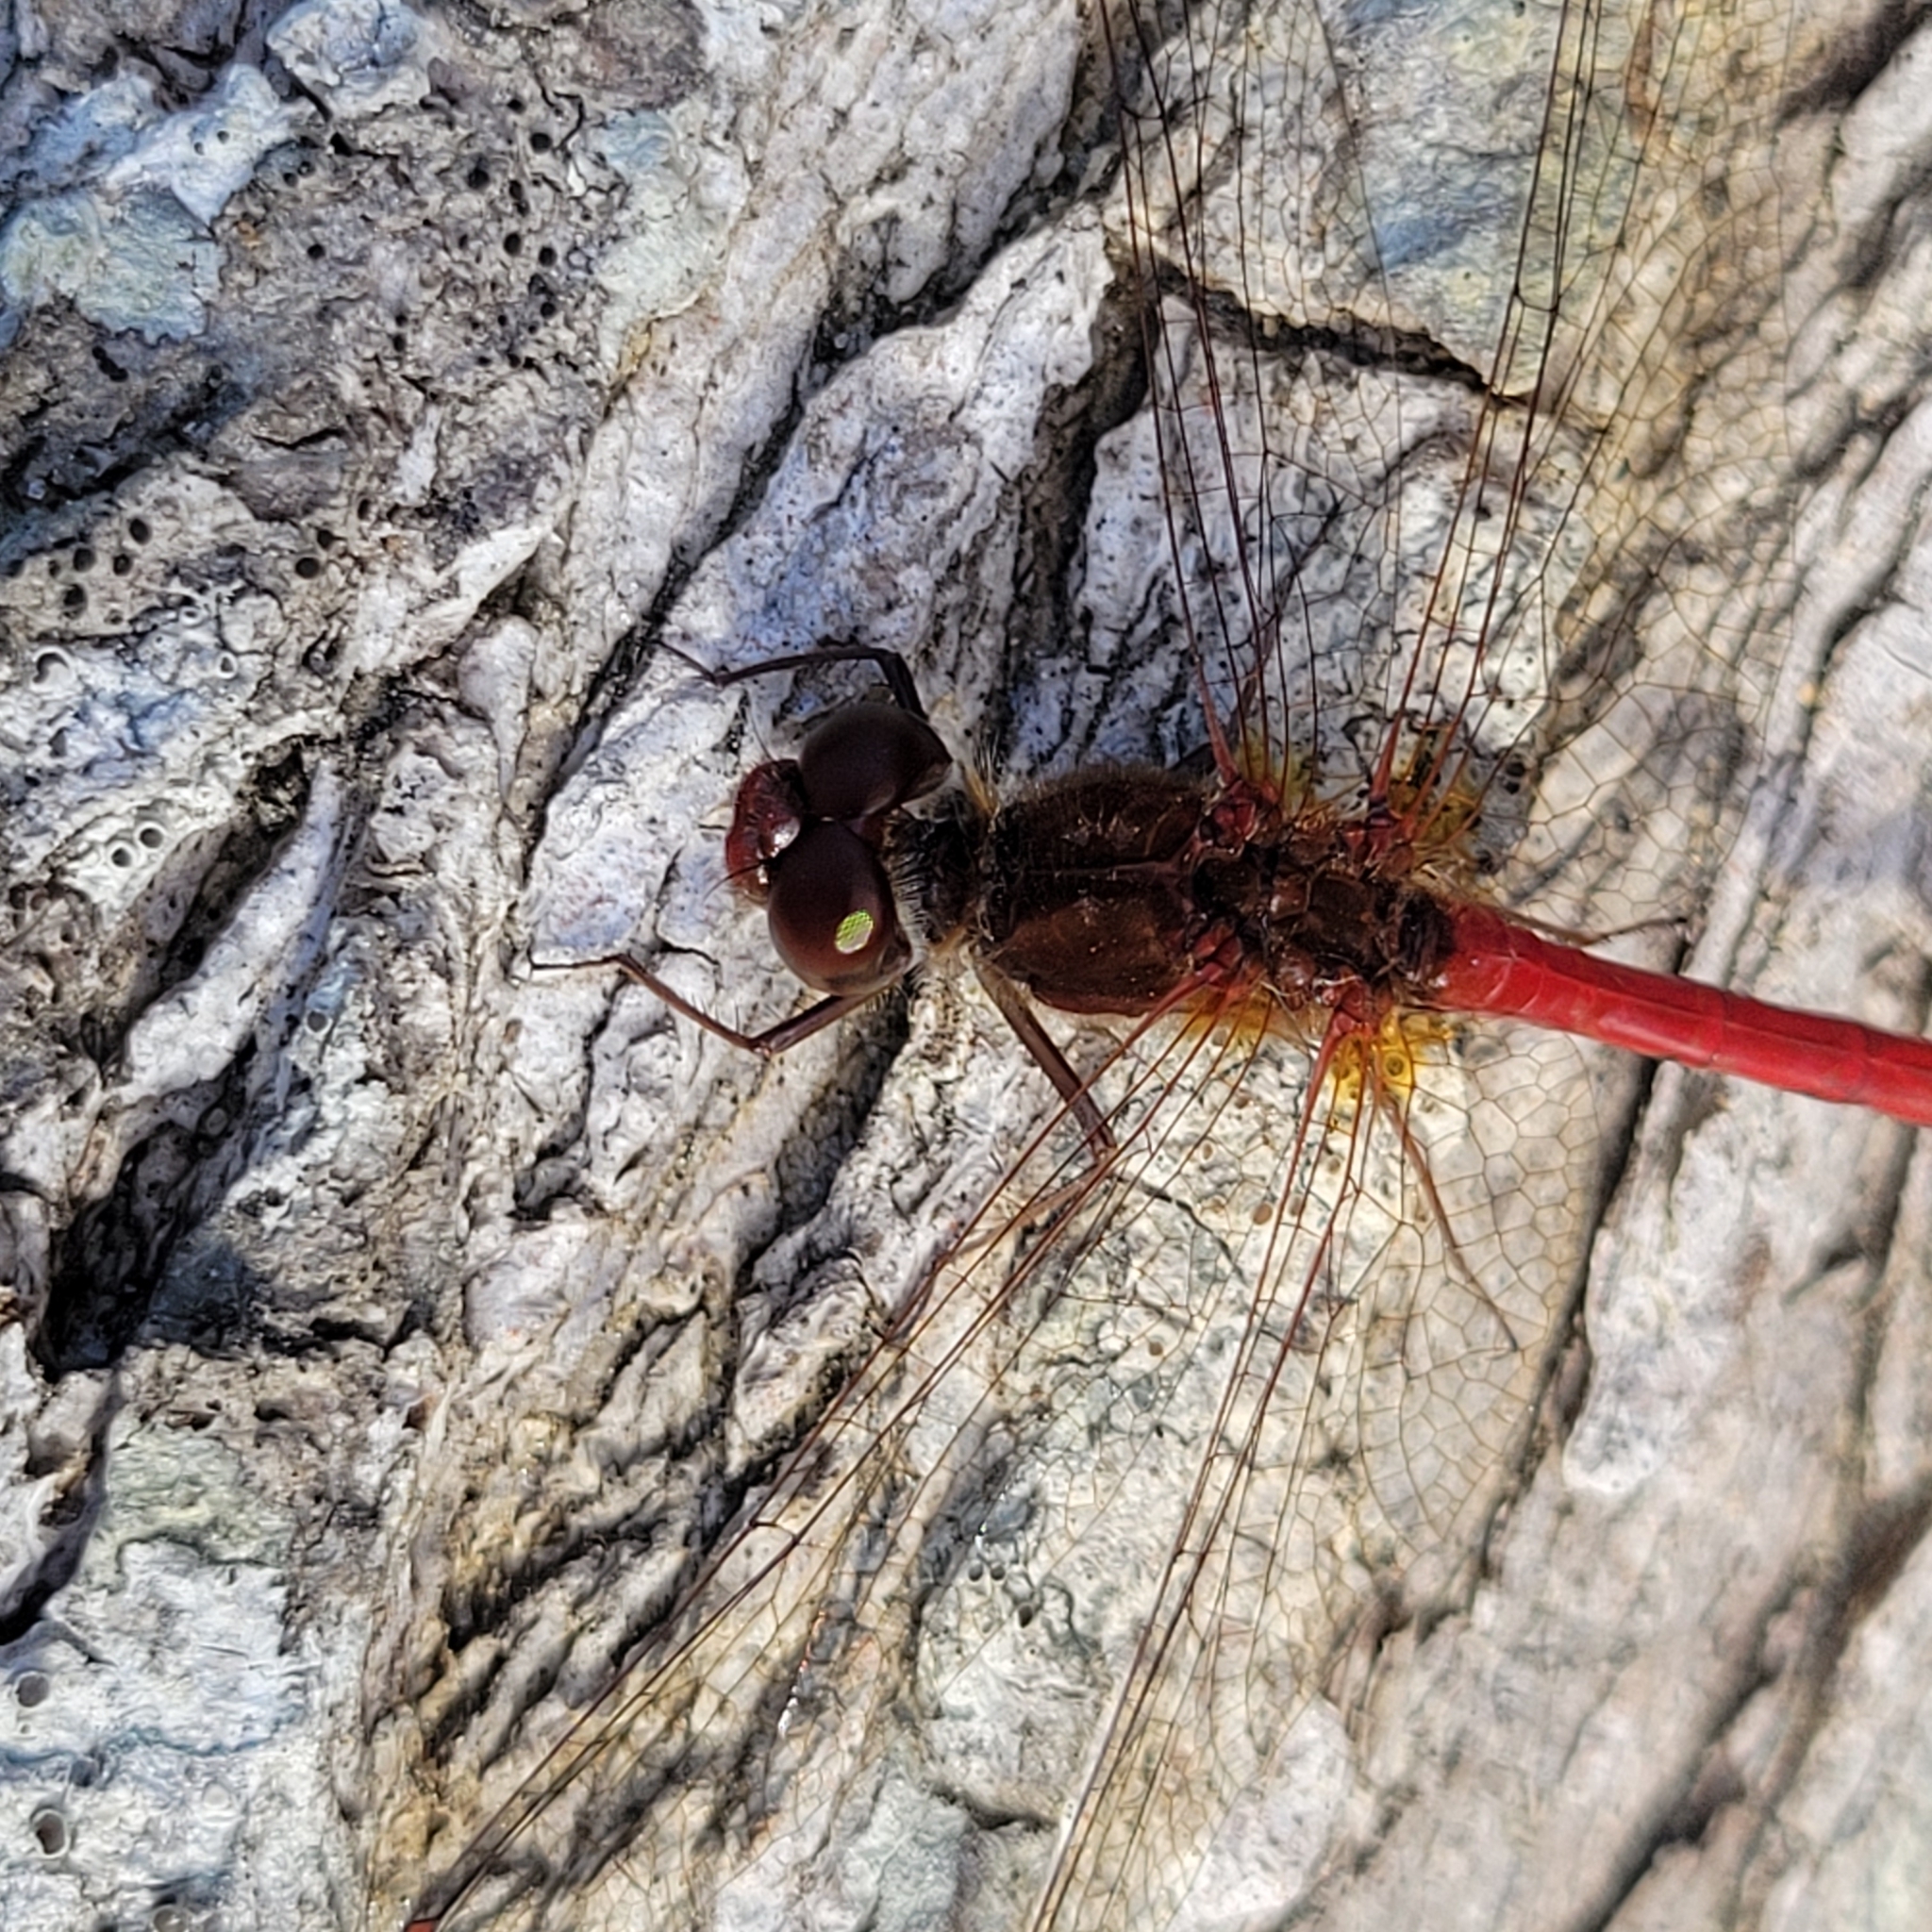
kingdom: Animalia
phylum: Arthropoda
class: Insecta
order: Odonata
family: Libellulidae
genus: Sympetrum
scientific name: Sympetrum vicinum
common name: Autumn meadowhawk
